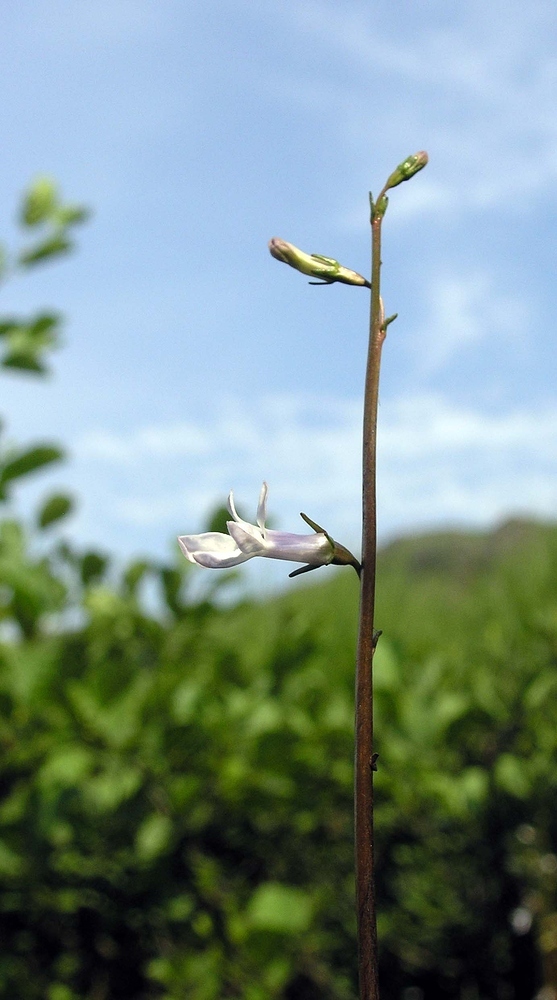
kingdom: Plantae
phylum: Tracheophyta
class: Magnoliopsida
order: Asterales
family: Campanulaceae
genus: Lobelia
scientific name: Lobelia dortmanna
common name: Water lobelia
